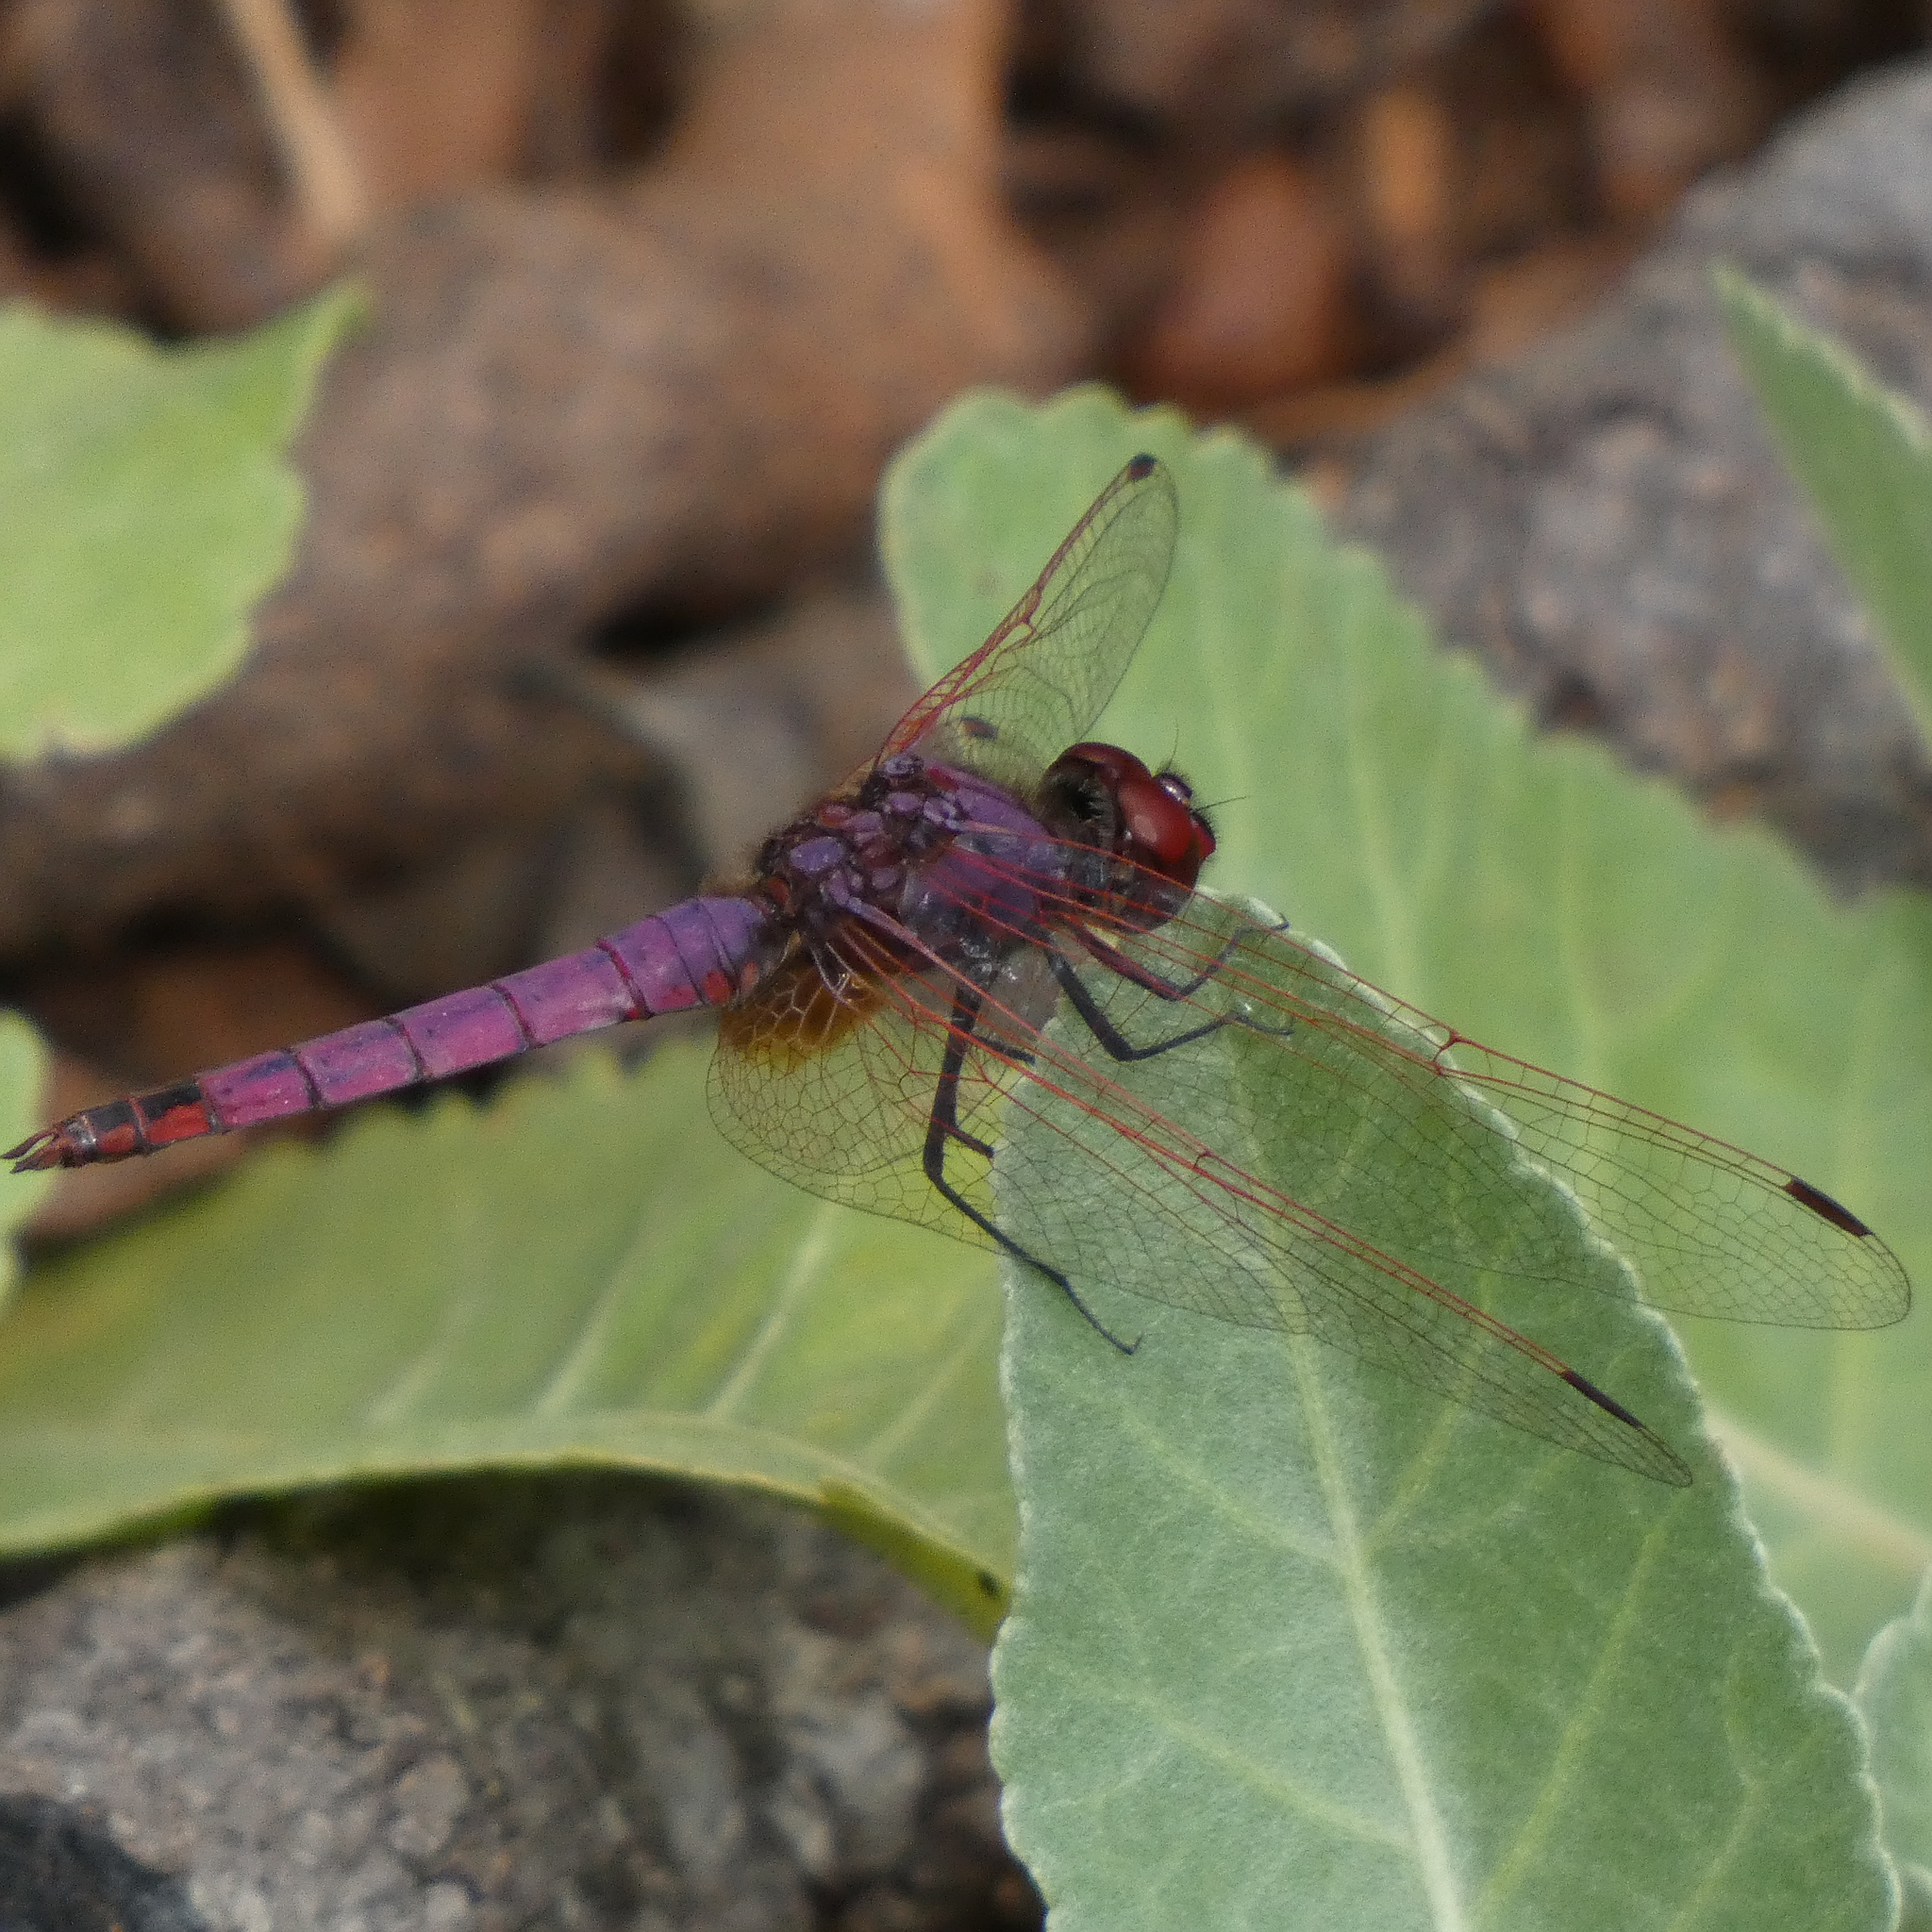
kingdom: Animalia
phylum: Arthropoda
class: Insecta
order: Odonata
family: Libellulidae
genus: Trithemis
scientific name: Trithemis annulata
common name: Violet dropwing
